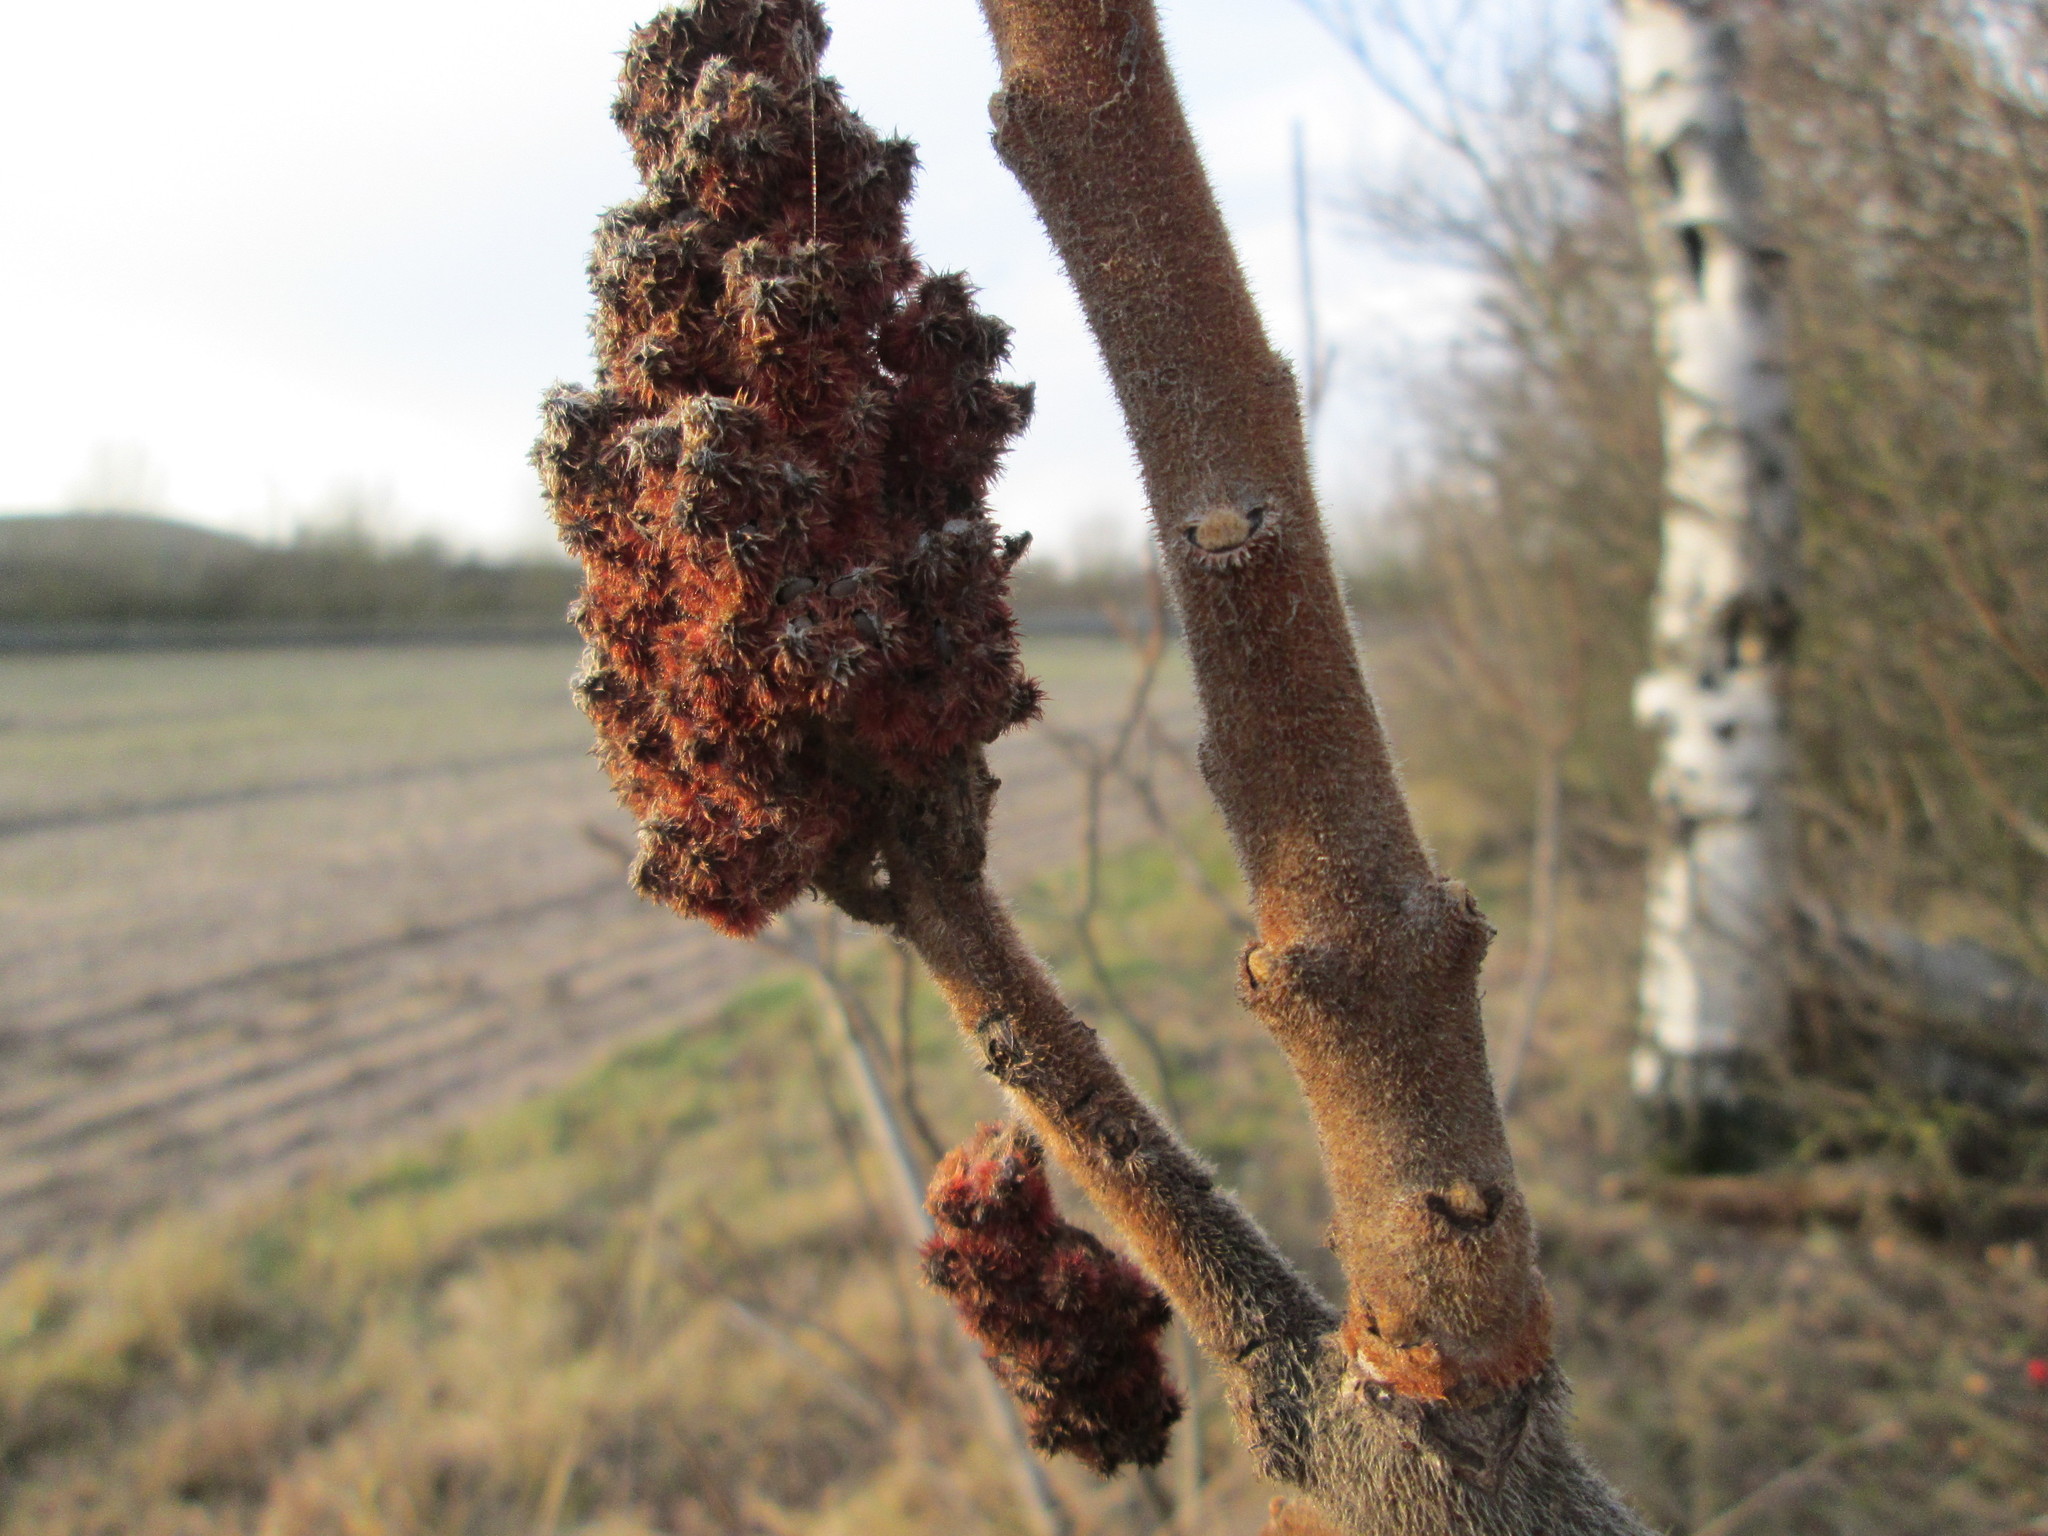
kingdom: Plantae
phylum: Tracheophyta
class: Magnoliopsida
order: Sapindales
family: Anacardiaceae
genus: Rhus
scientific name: Rhus typhina
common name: Staghorn sumac
